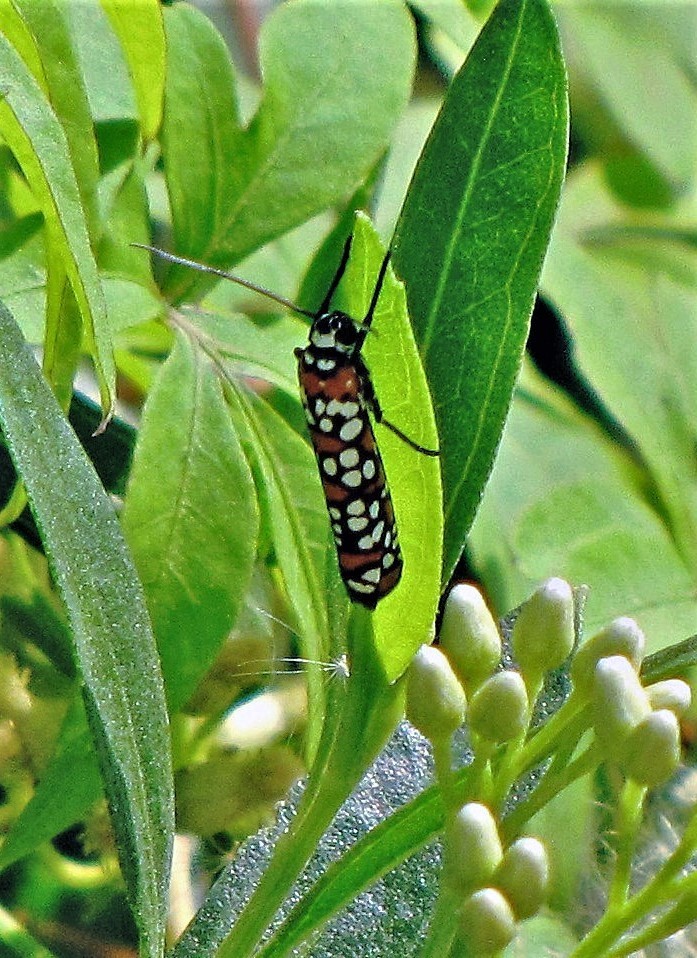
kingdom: Animalia
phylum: Arthropoda
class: Insecta
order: Lepidoptera
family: Attevidae
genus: Atteva
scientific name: Atteva punctella
